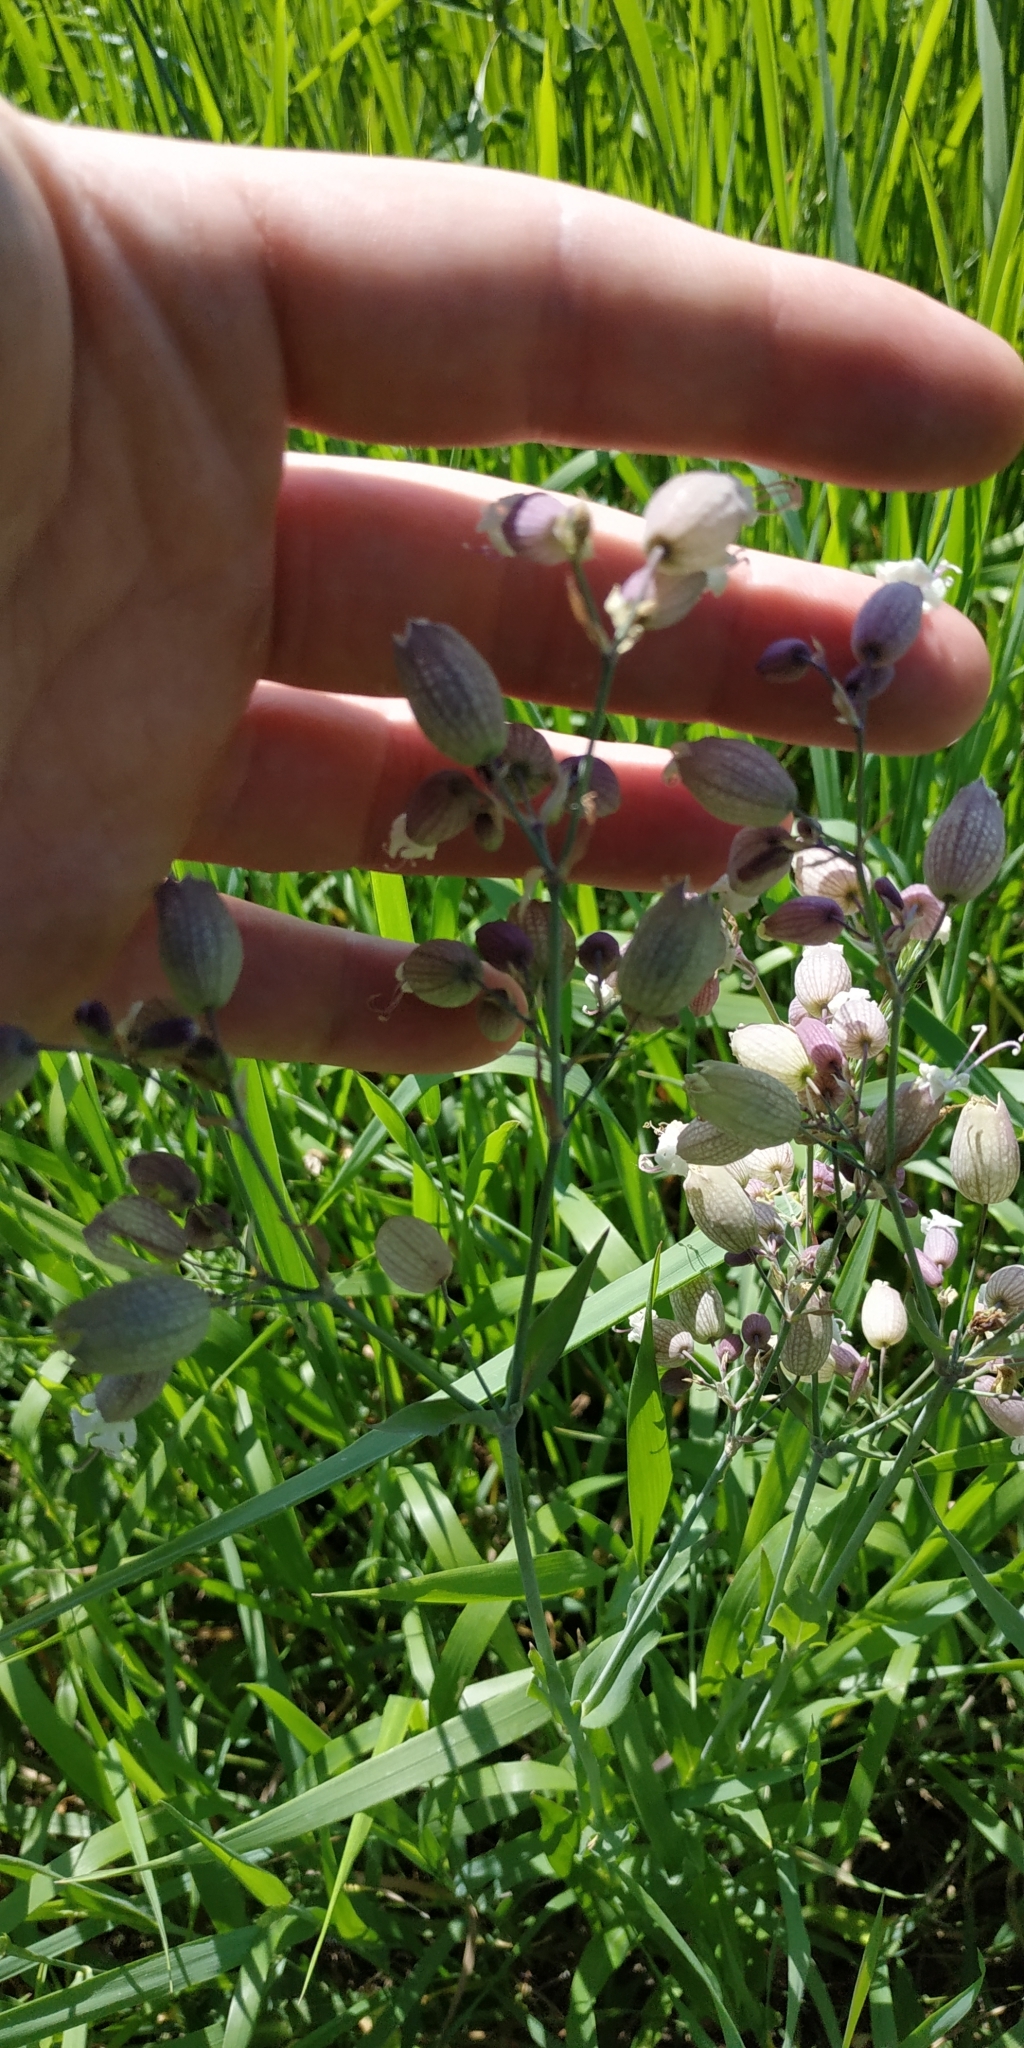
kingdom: Plantae
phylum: Tracheophyta
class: Magnoliopsida
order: Caryophyllales
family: Caryophyllaceae
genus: Silene
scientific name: Silene vulgaris
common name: Bladder campion
